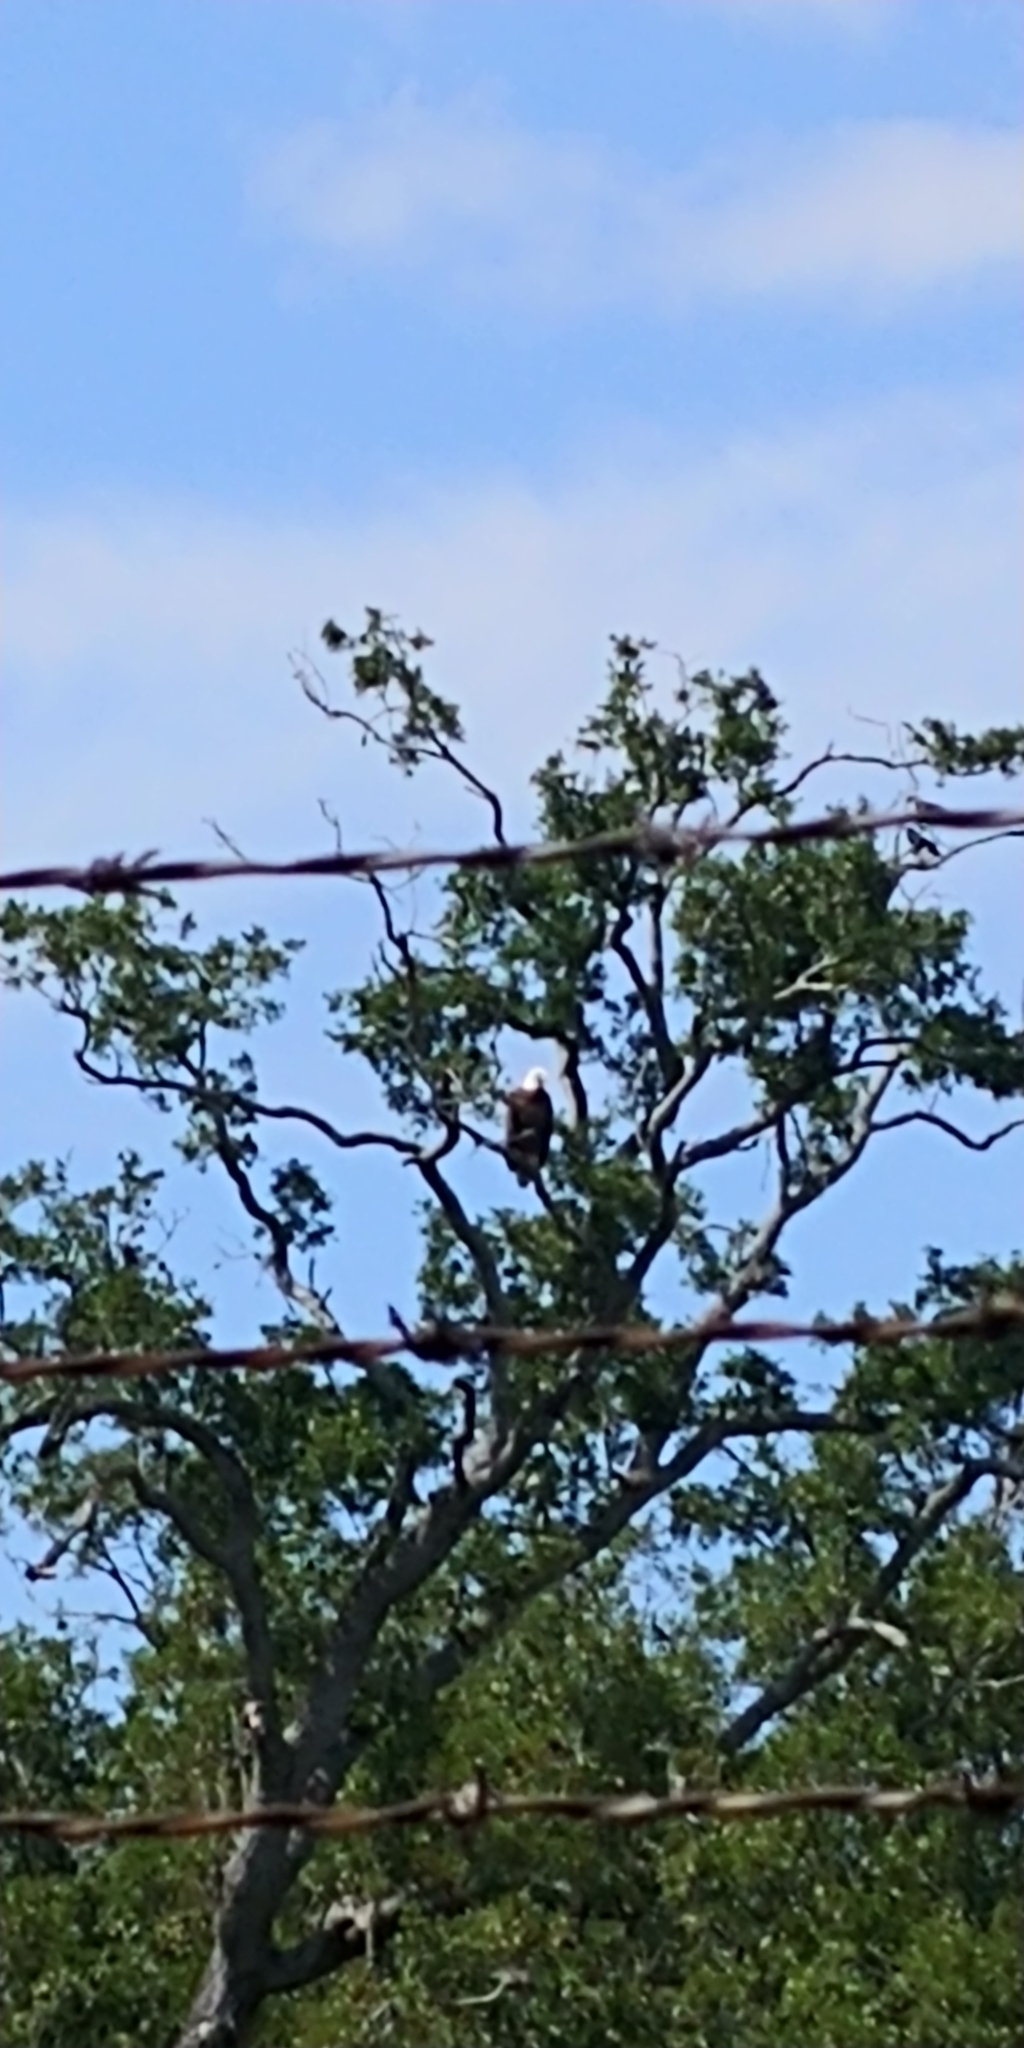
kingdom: Animalia
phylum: Chordata
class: Aves
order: Accipitriformes
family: Accipitridae
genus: Haliaeetus
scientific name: Haliaeetus leucocephalus
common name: Bald eagle
